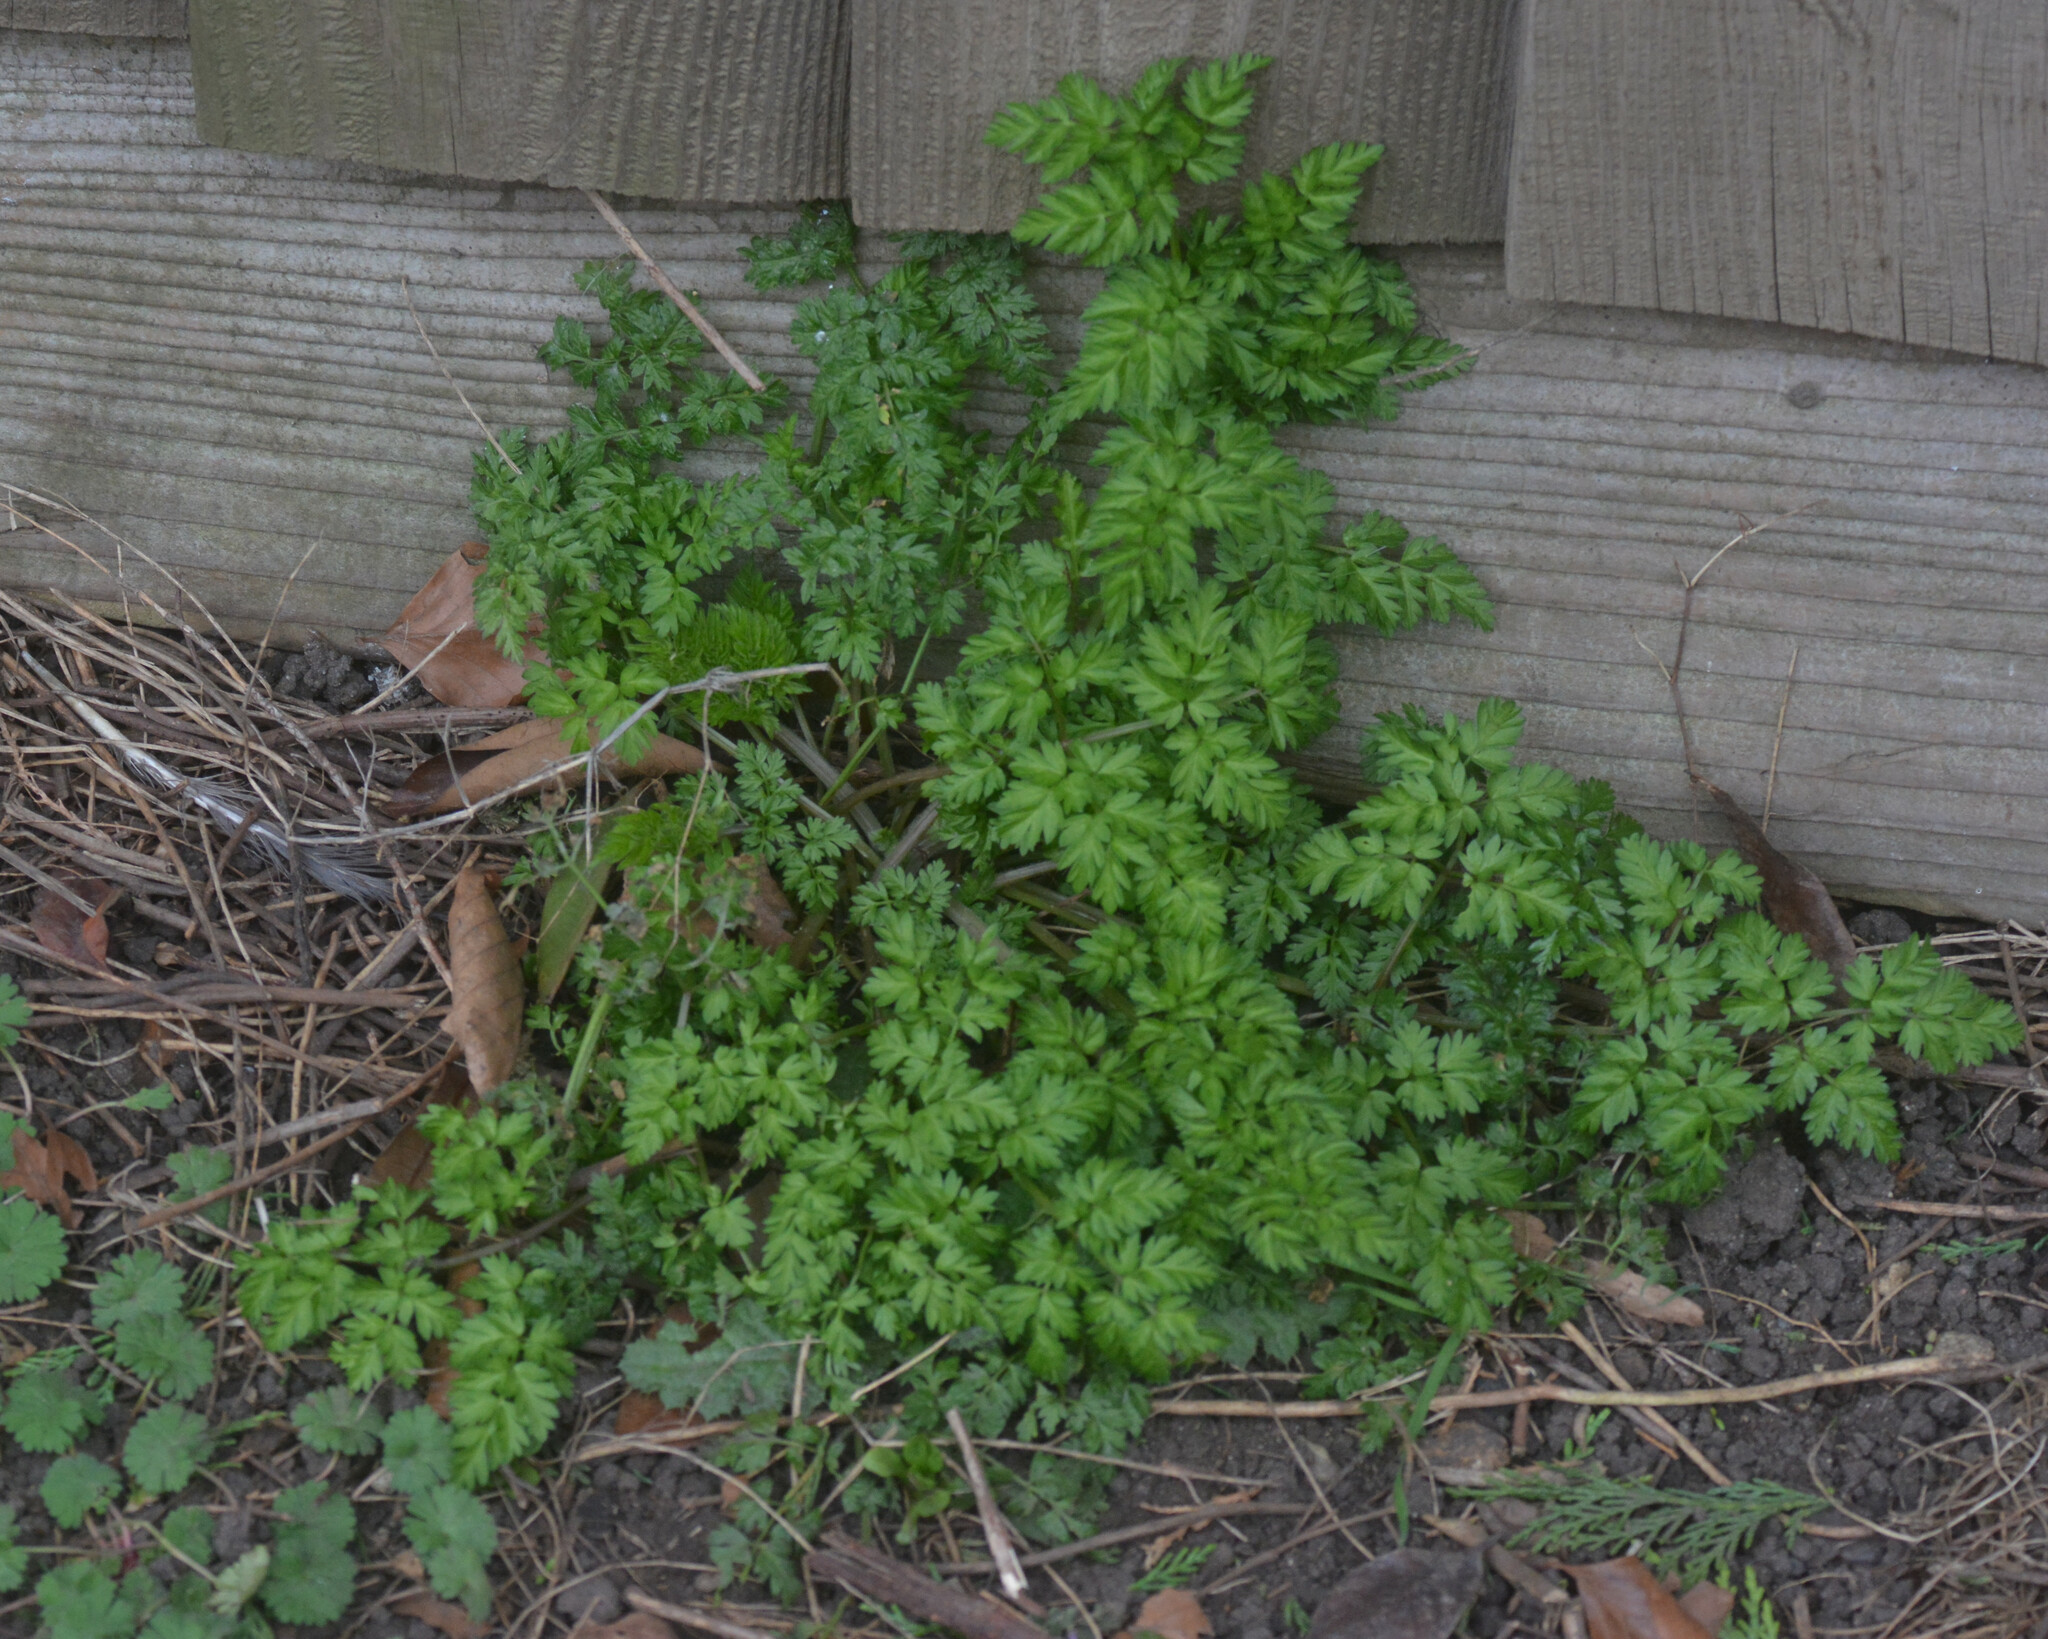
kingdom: Plantae
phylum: Tracheophyta
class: Magnoliopsida
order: Apiales
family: Apiaceae
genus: Anthriscus
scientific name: Anthriscus sylvestris
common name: Cow parsley
